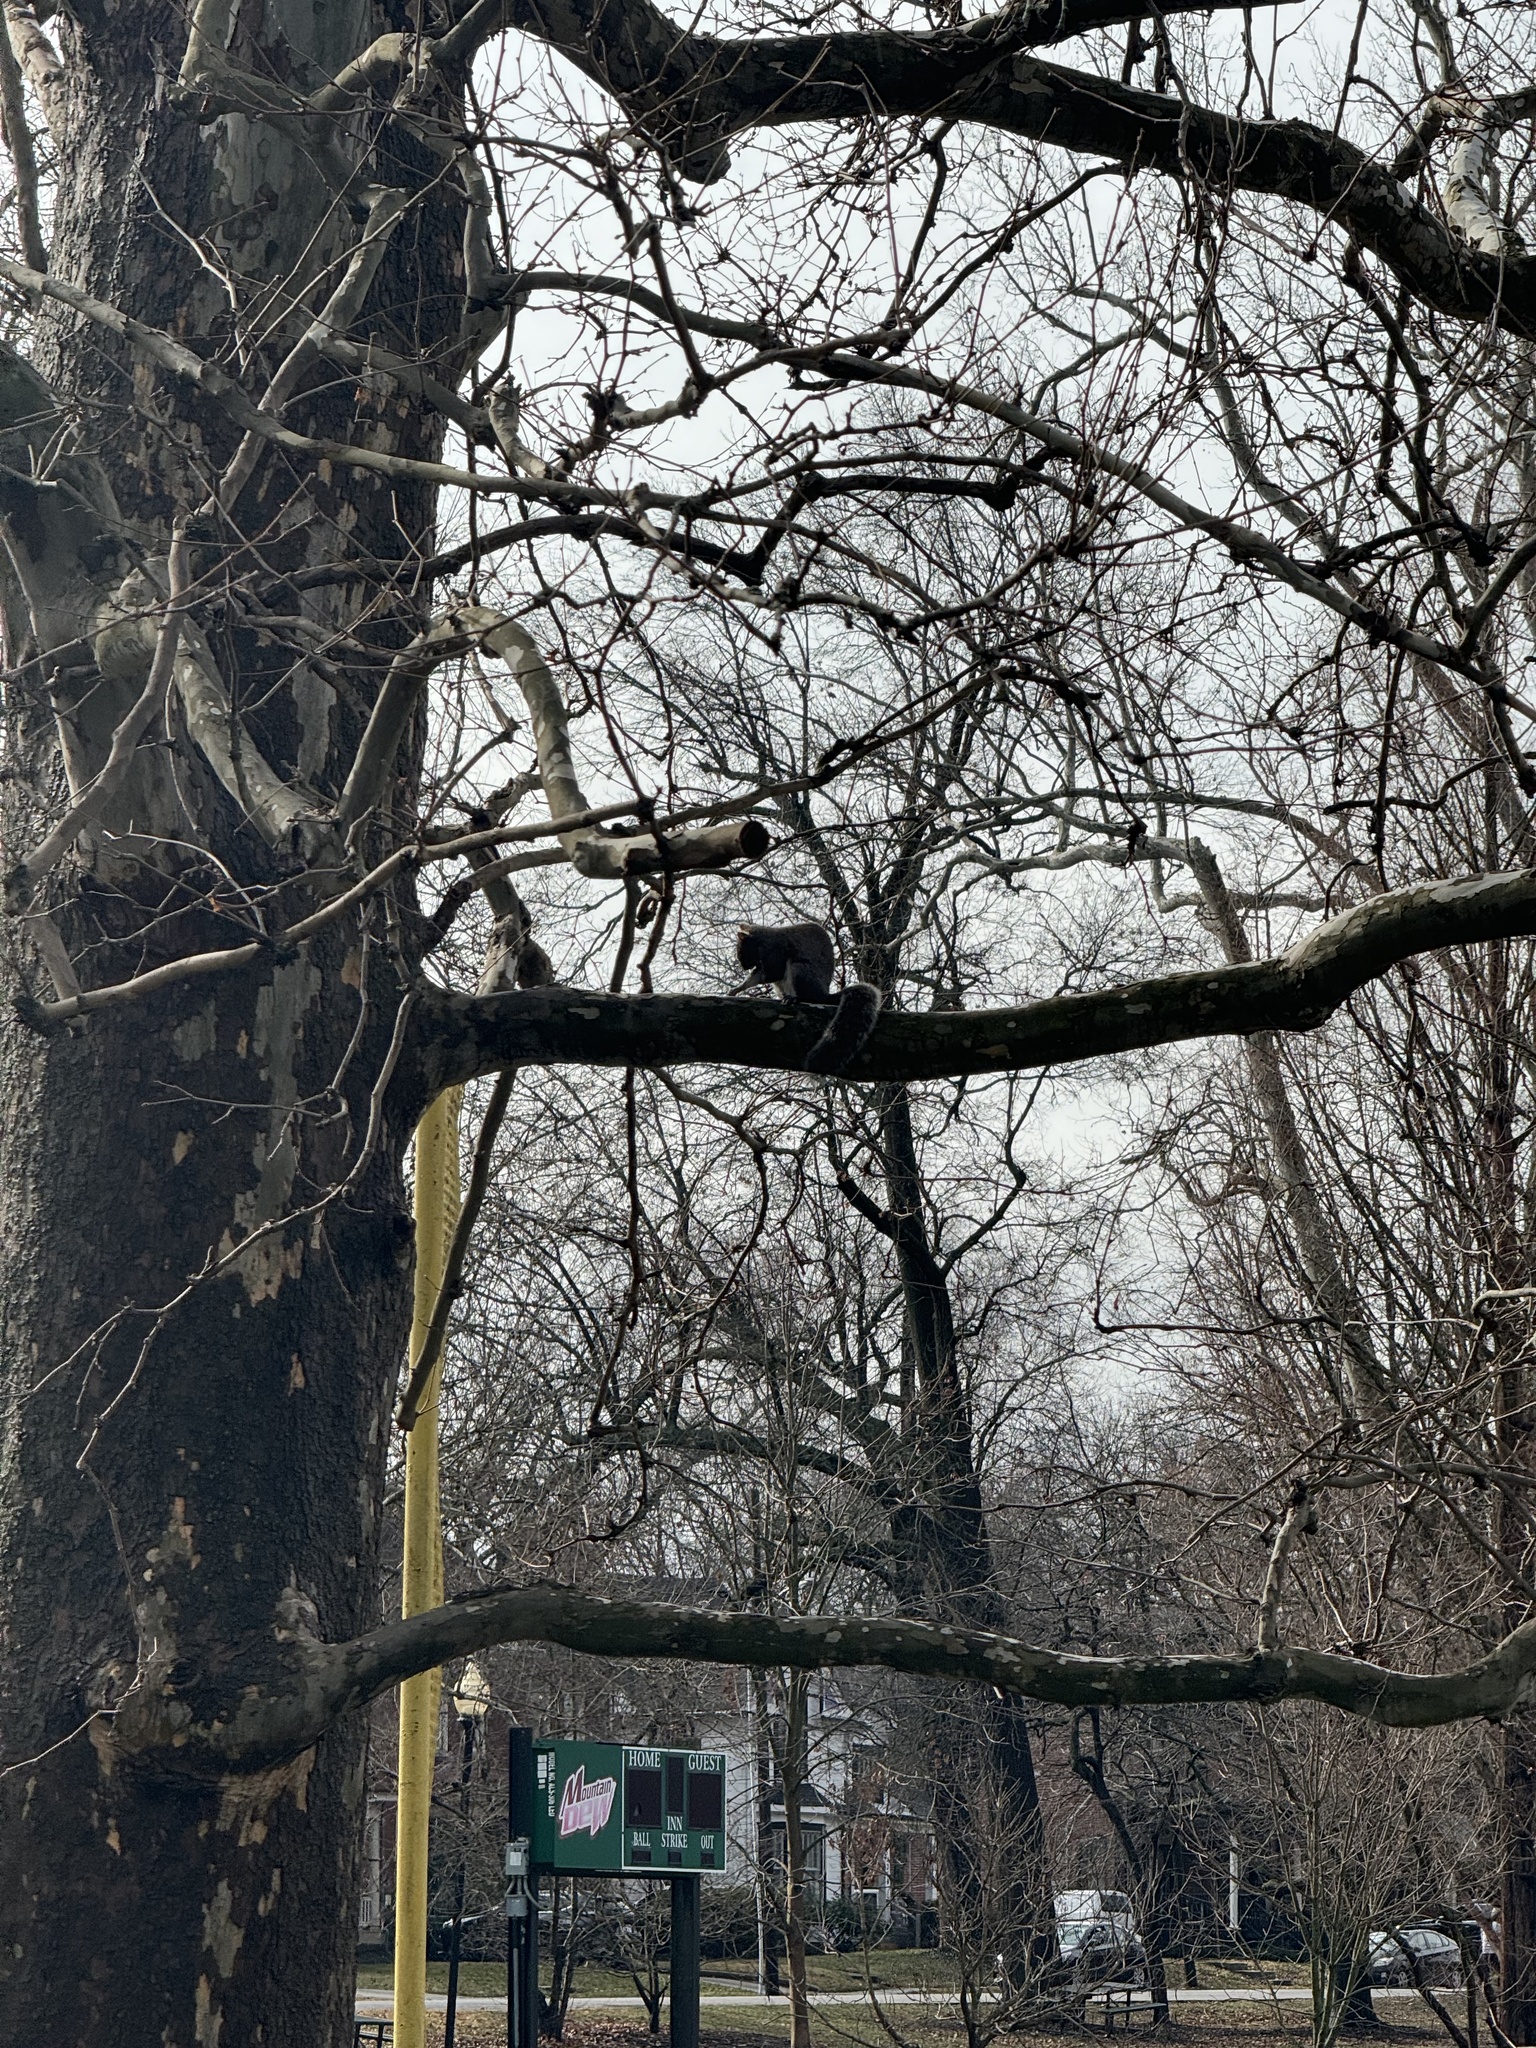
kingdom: Animalia
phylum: Chordata
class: Mammalia
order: Rodentia
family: Sciuridae
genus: Sciurus
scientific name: Sciurus carolinensis
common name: Eastern gray squirrel
